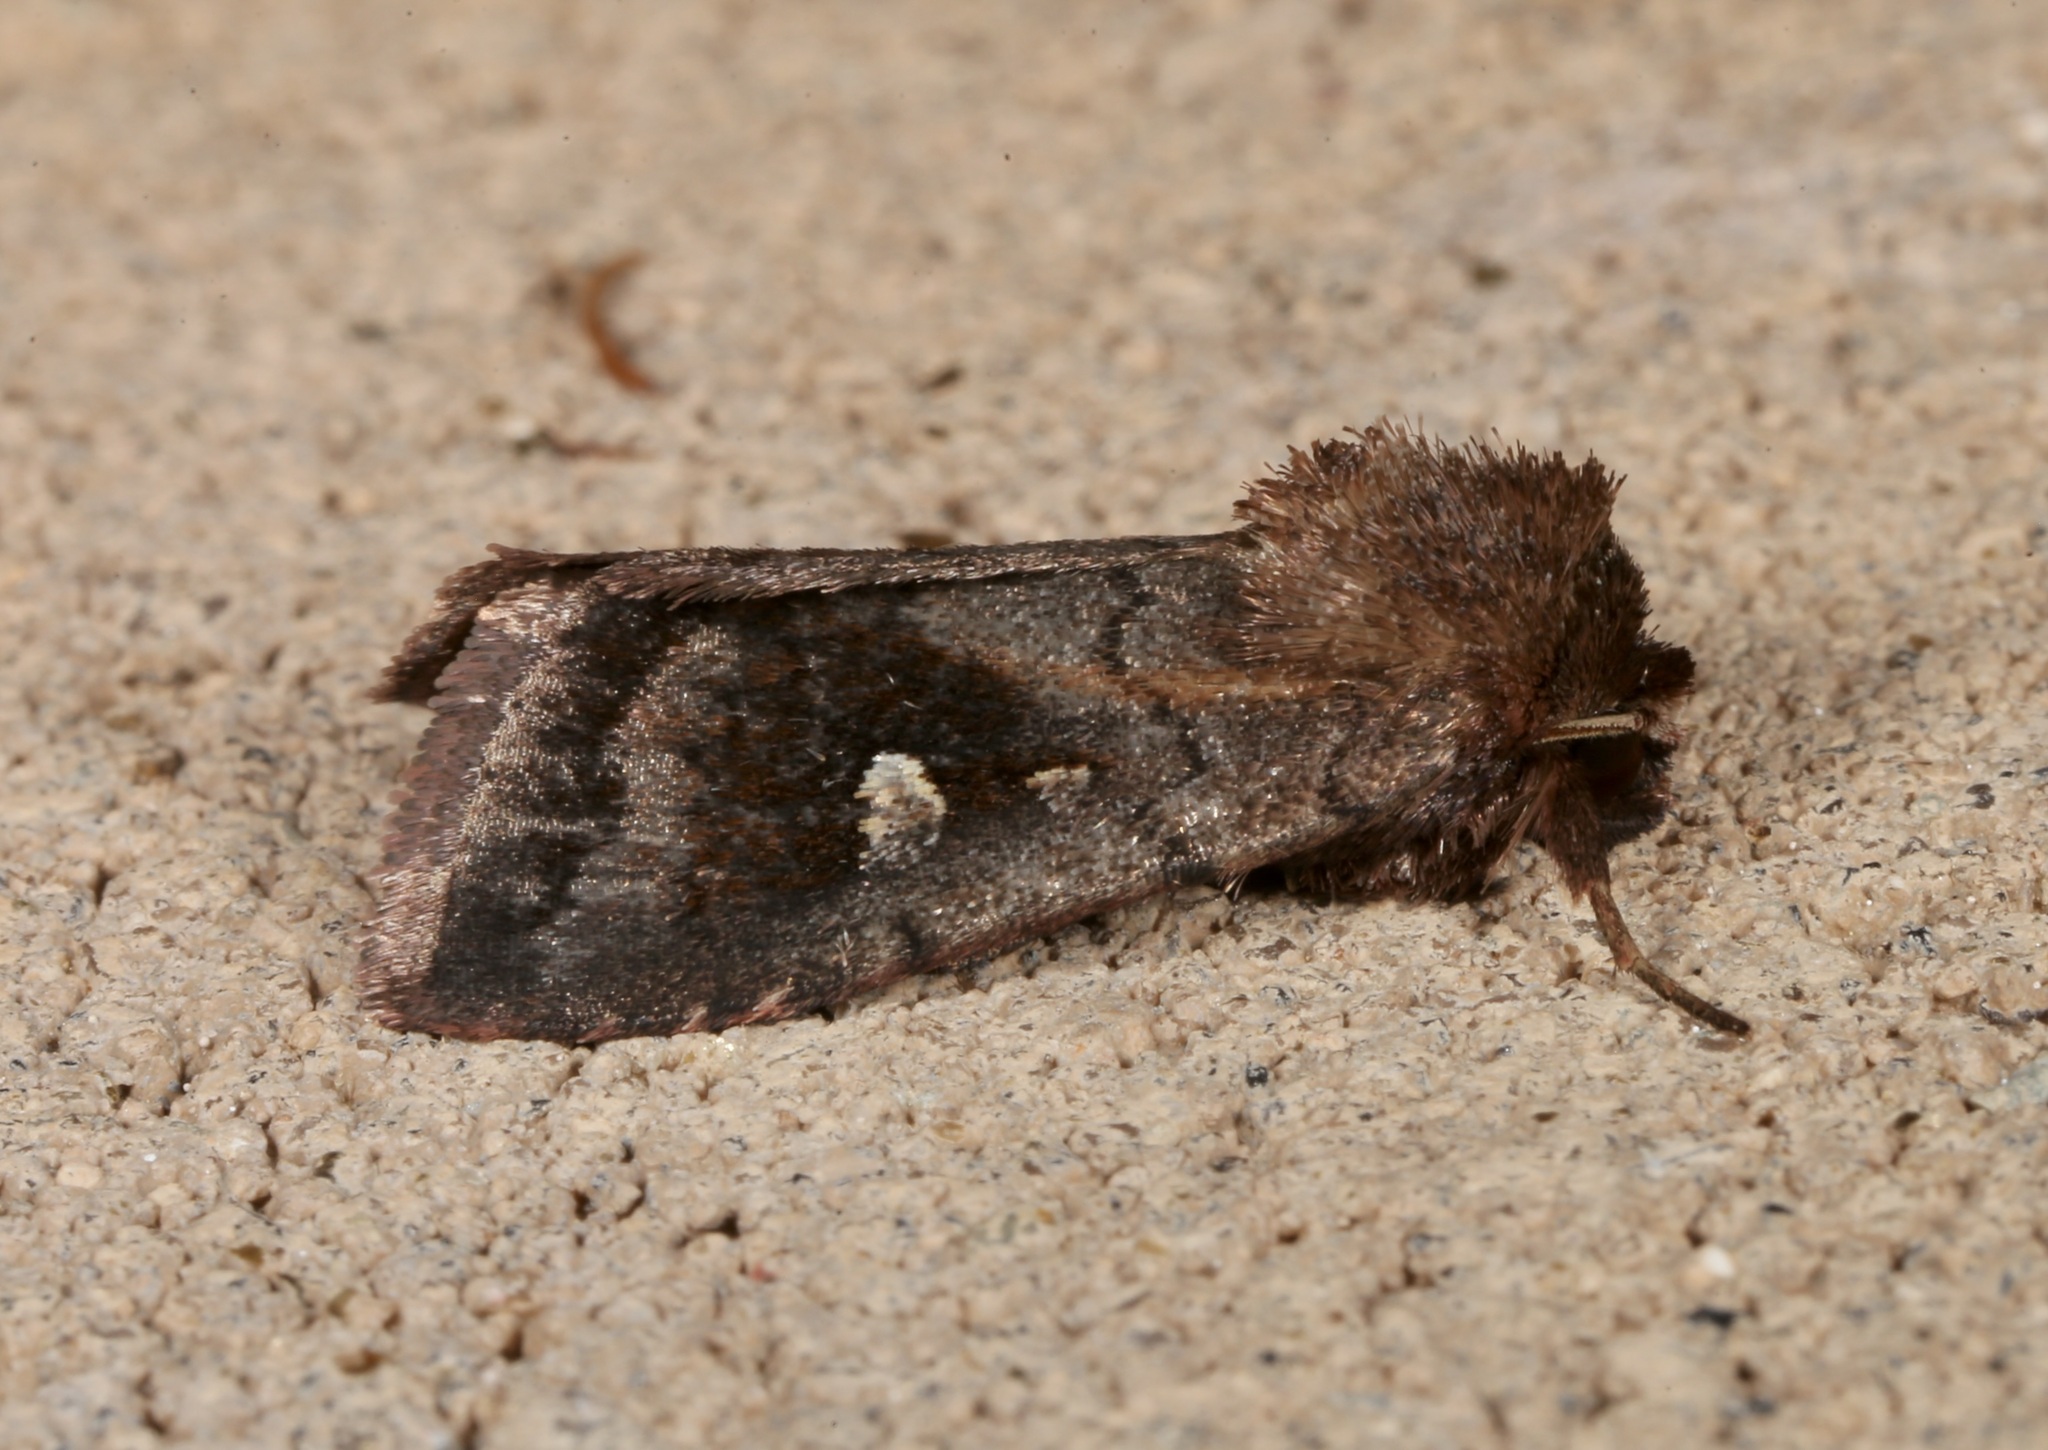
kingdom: Animalia
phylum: Arthropoda
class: Insecta
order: Lepidoptera
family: Noctuidae
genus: Iodopepla
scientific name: Iodopepla ualbum
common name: White-eyed borer moth
